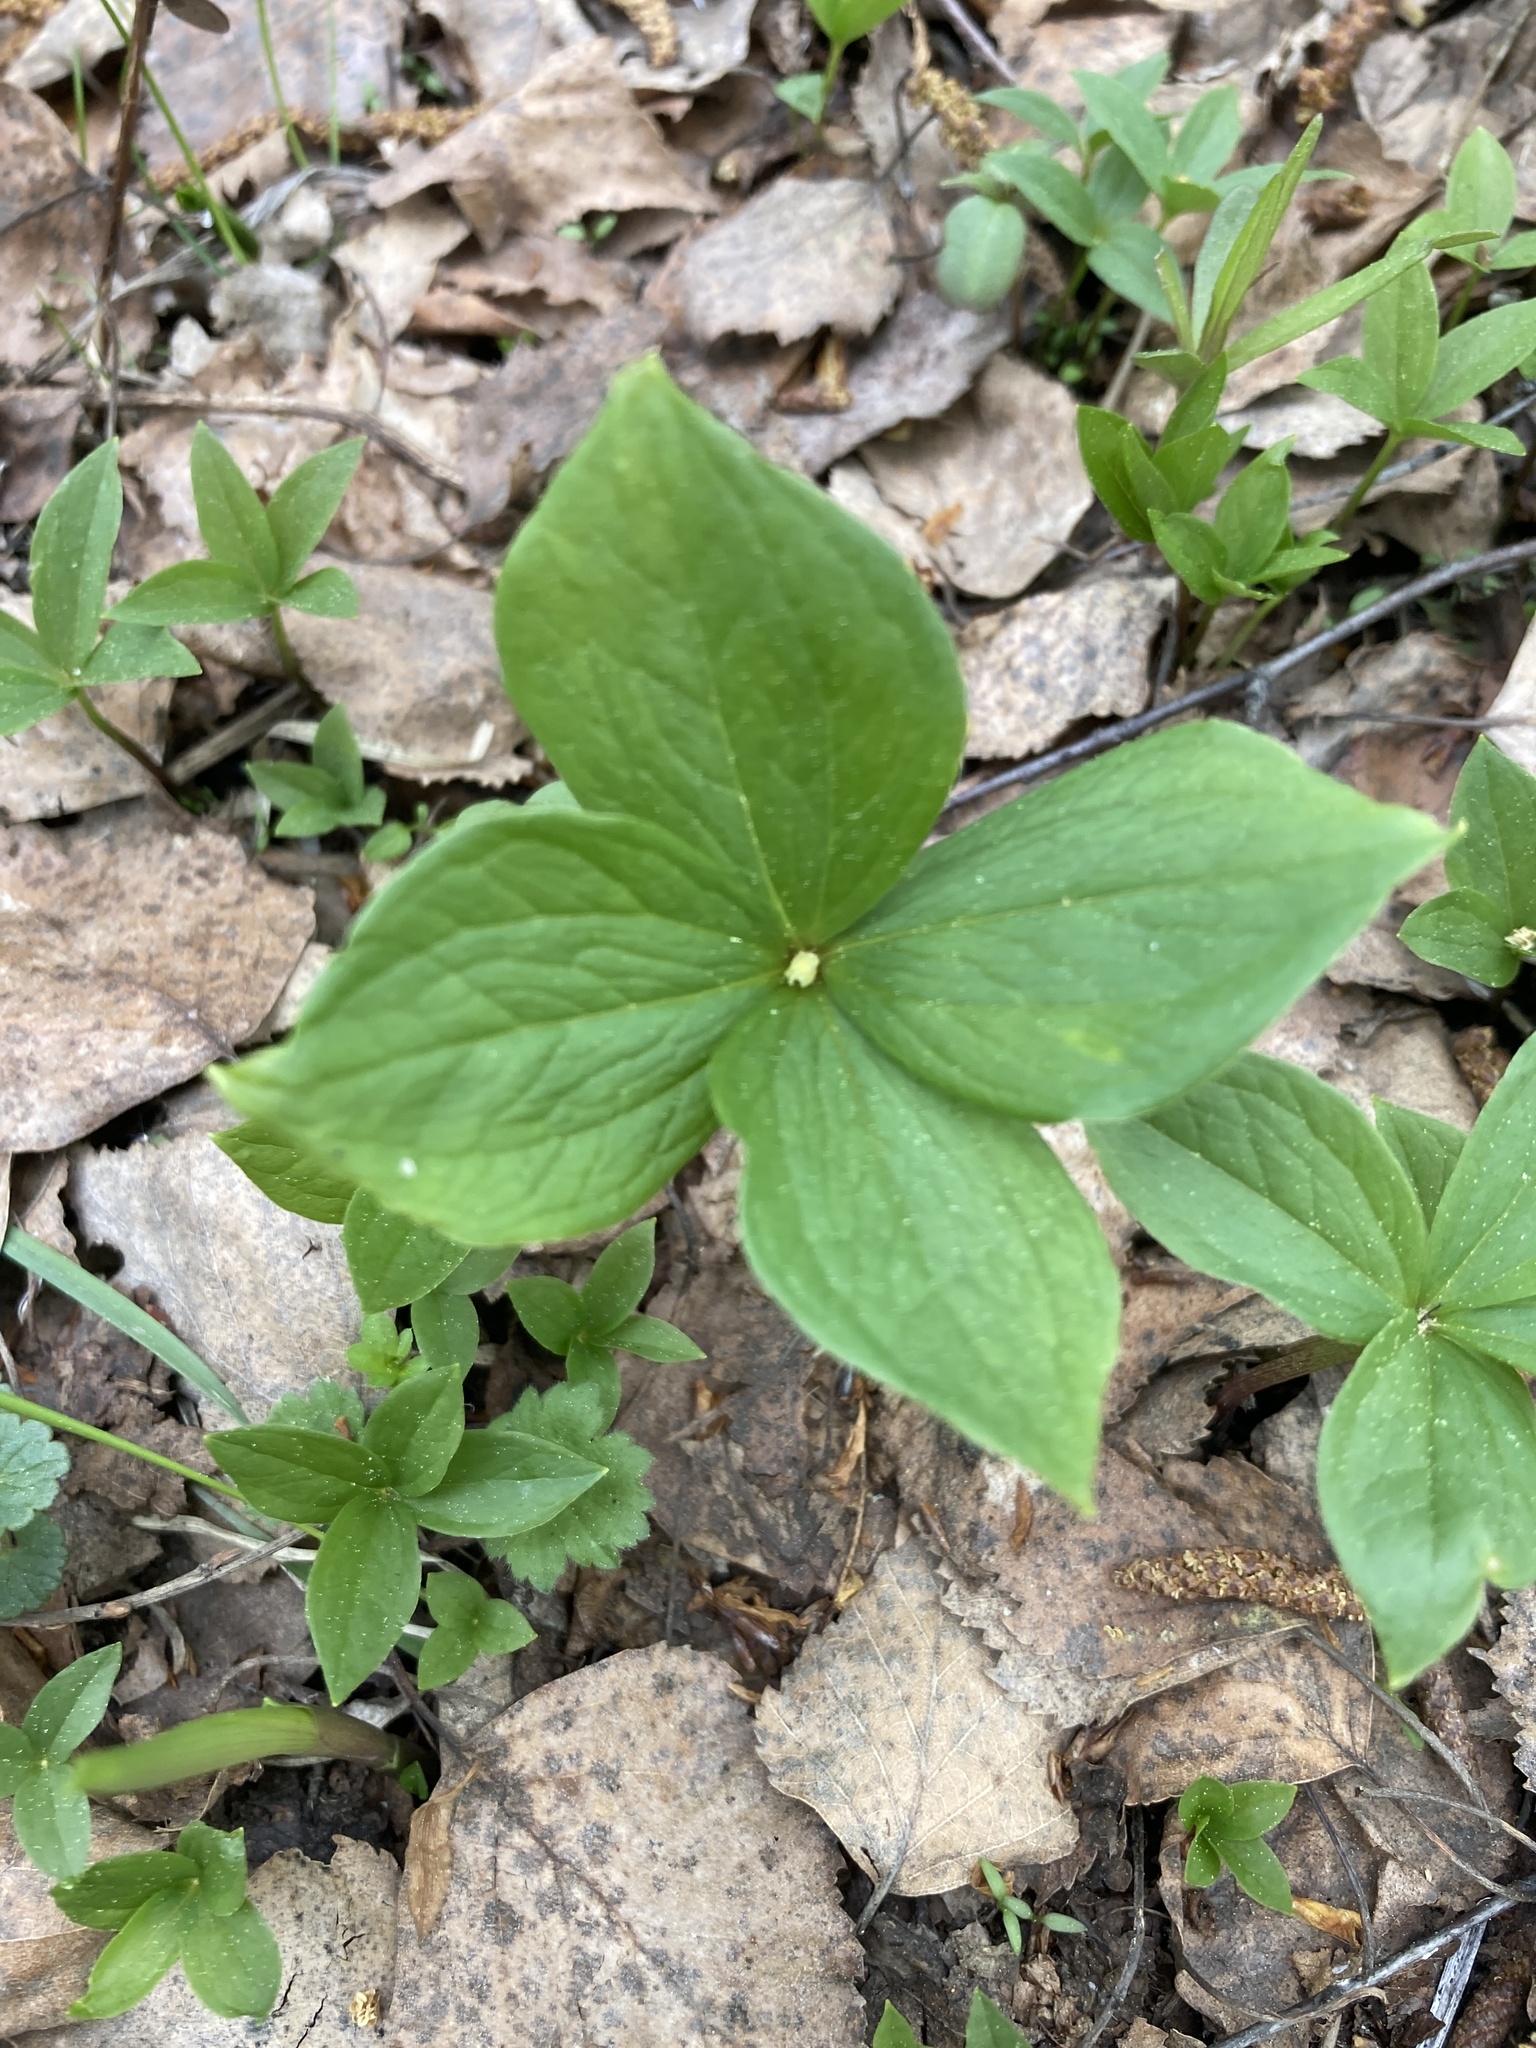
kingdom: Plantae
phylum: Tracheophyta
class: Liliopsida
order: Liliales
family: Melanthiaceae
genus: Paris
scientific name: Paris quadrifolia
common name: Herb-paris
